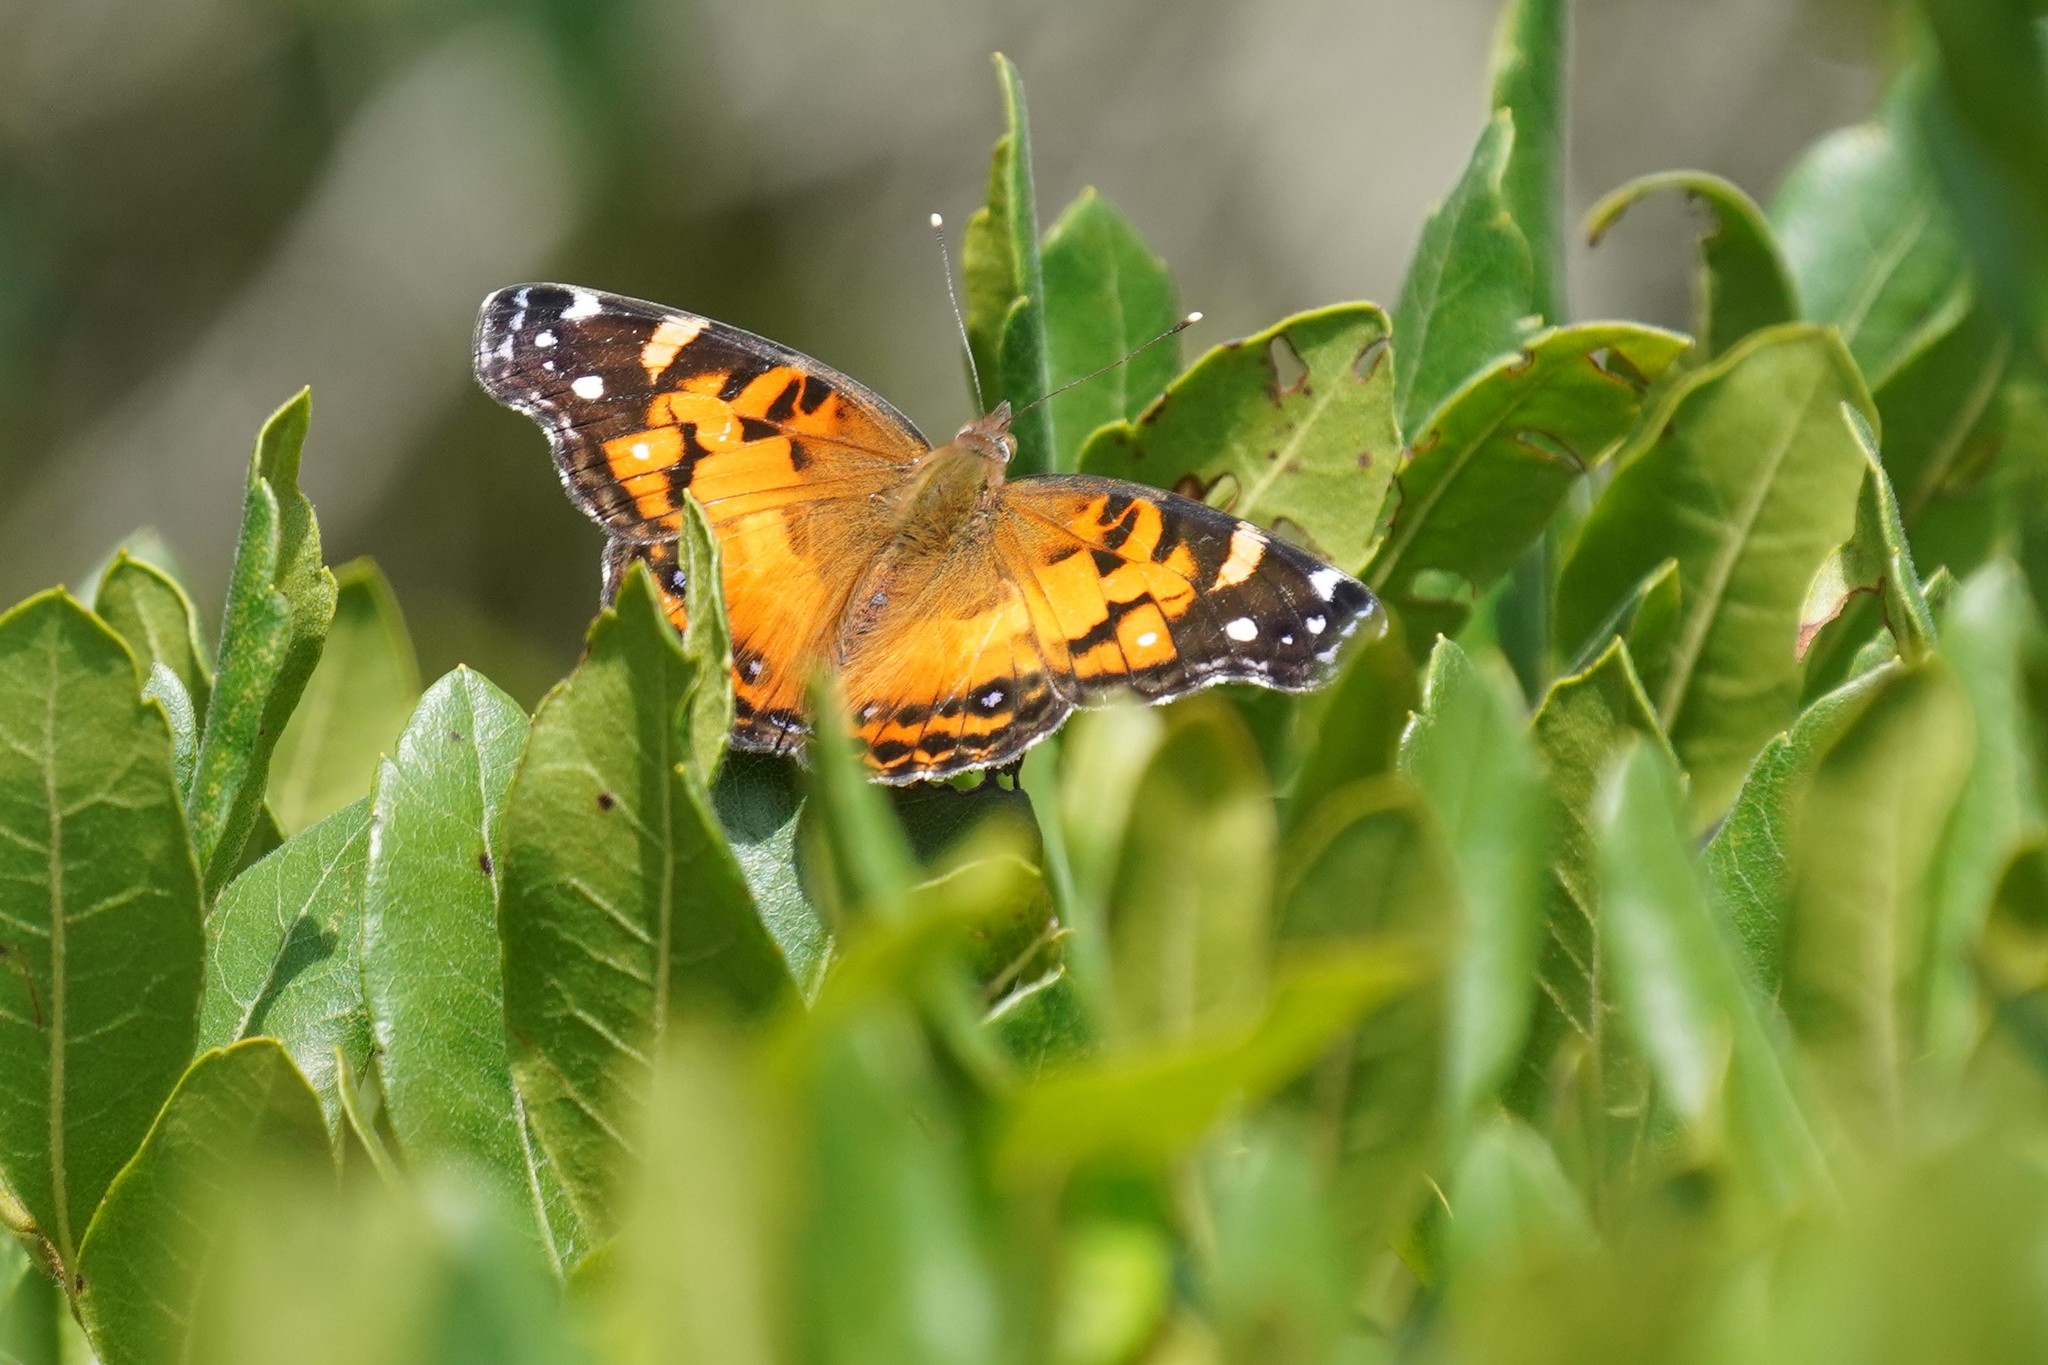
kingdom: Animalia
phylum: Arthropoda
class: Insecta
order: Lepidoptera
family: Nymphalidae
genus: Vanessa
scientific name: Vanessa virginiensis
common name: American lady
